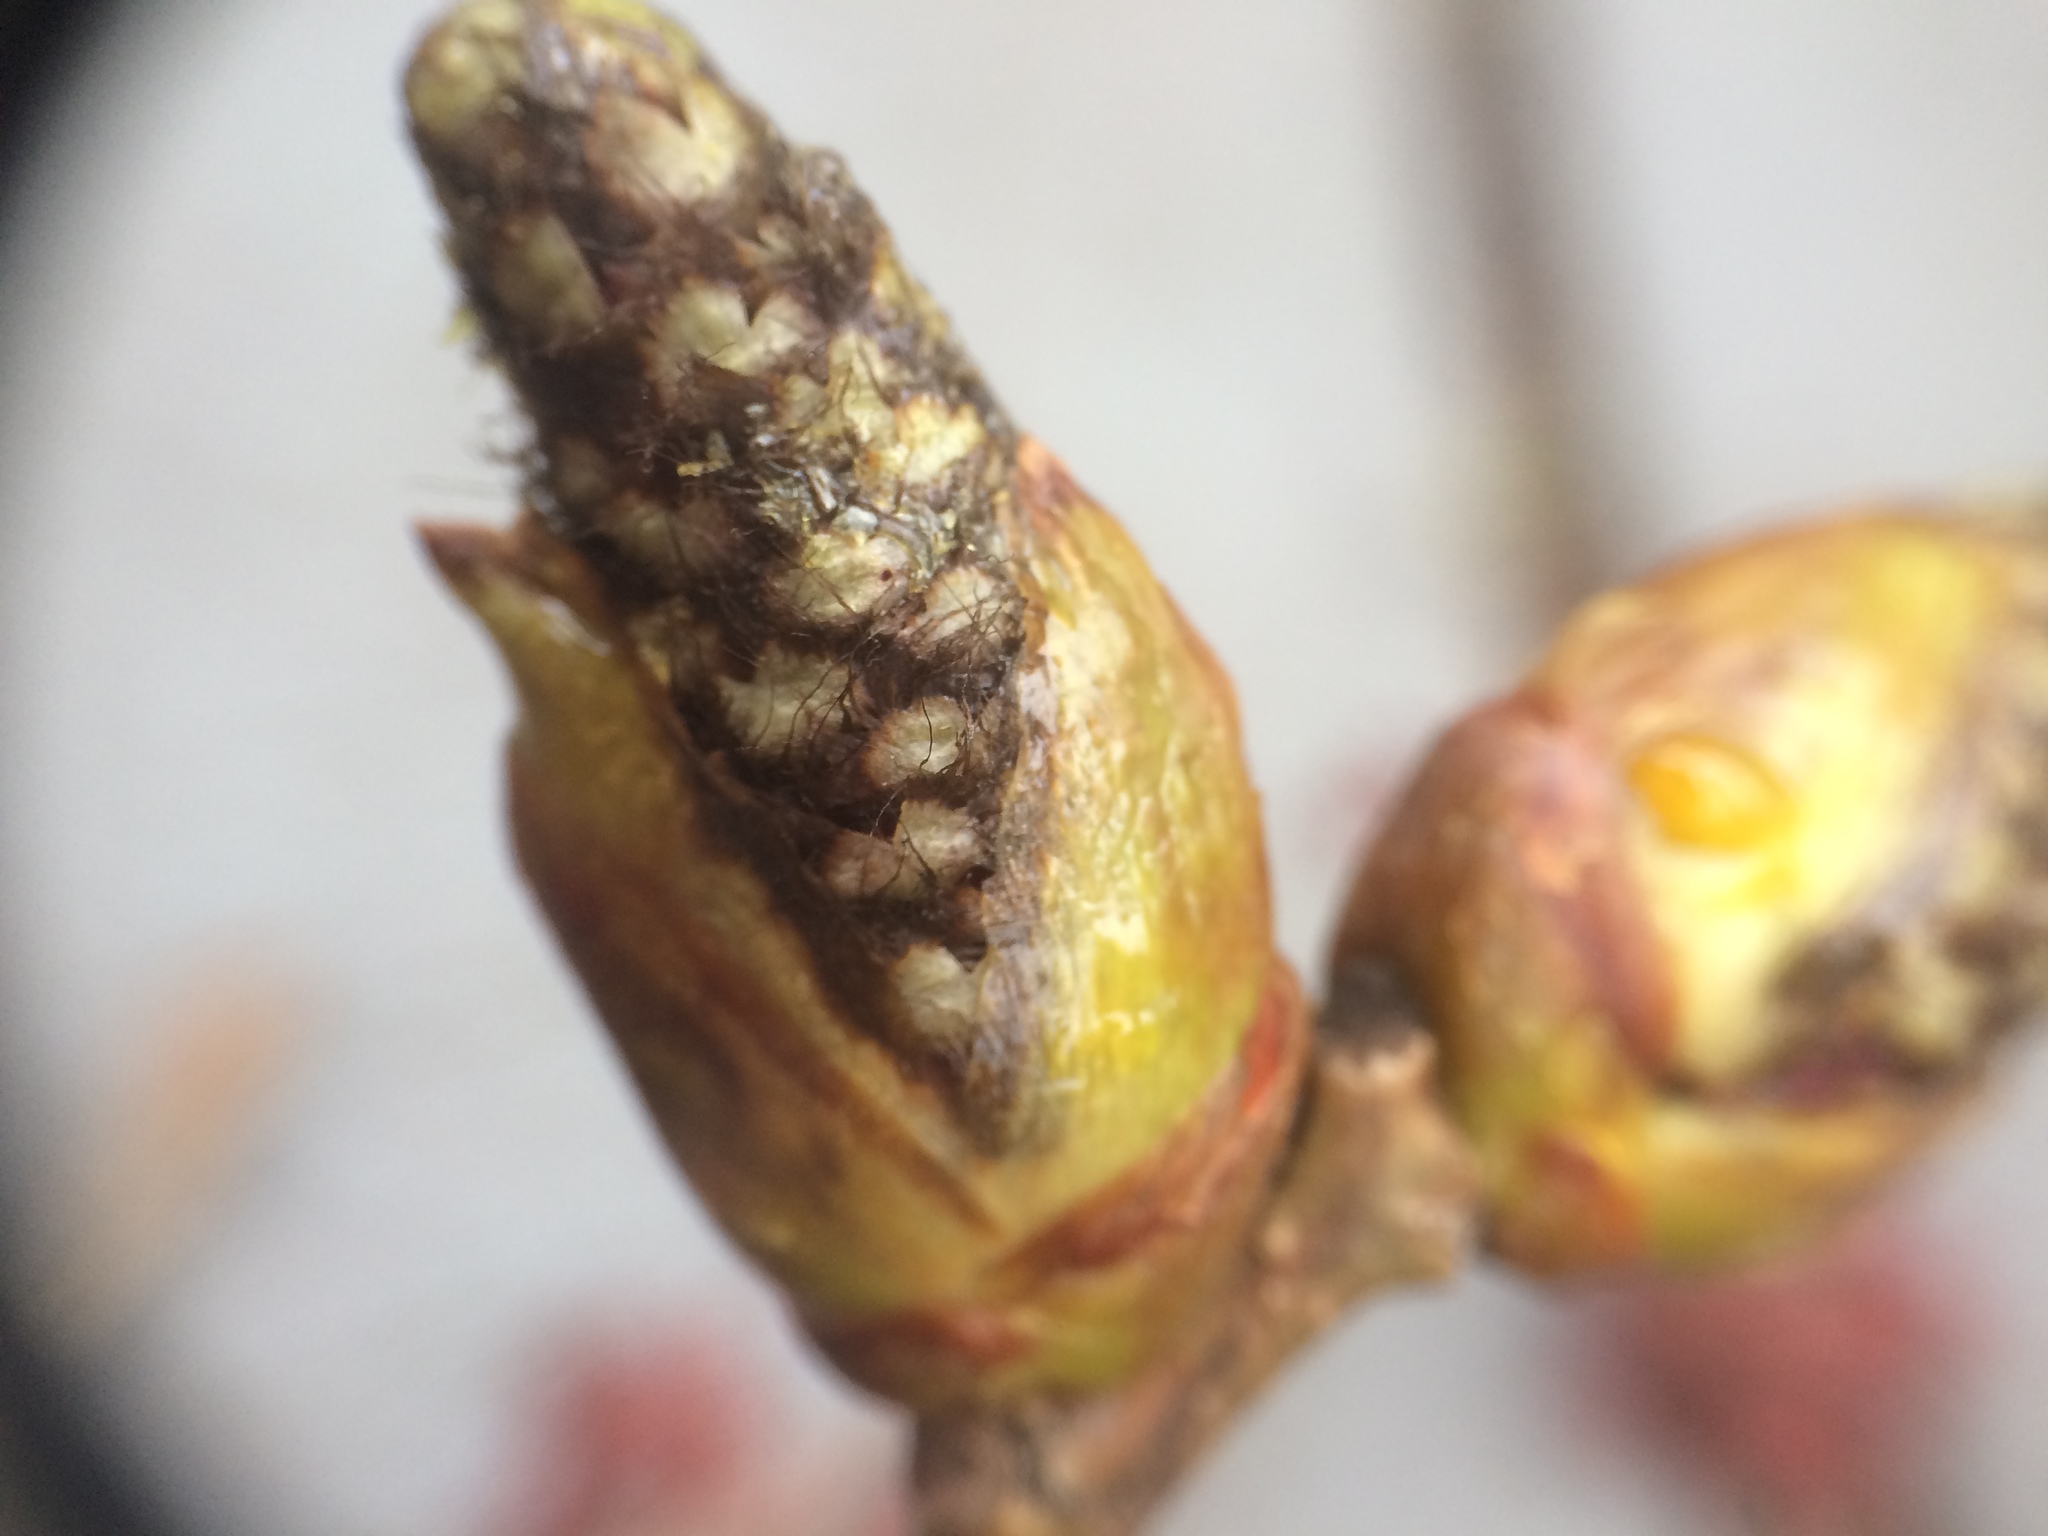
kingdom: Plantae
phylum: Tracheophyta
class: Magnoliopsida
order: Malpighiales
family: Salicaceae
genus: Populus
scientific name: Populus deltoides
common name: Eastern cottonwood
